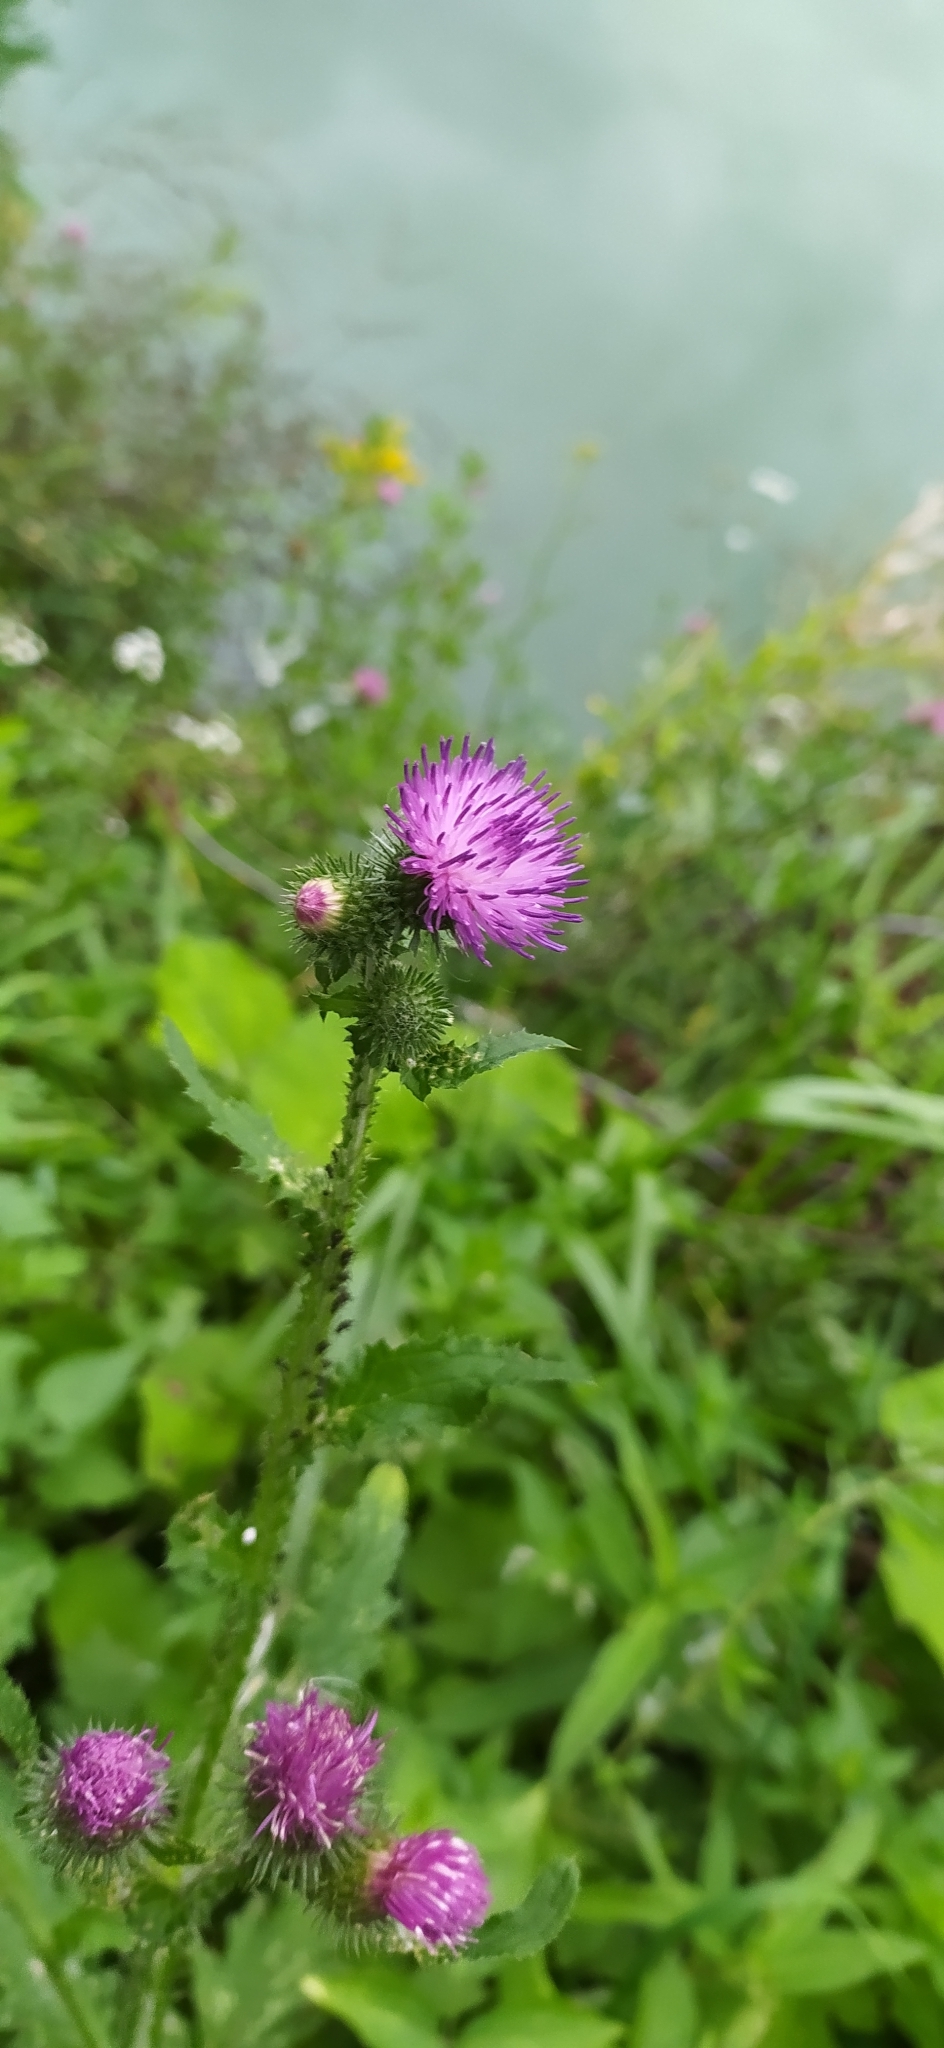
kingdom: Plantae
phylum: Tracheophyta
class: Magnoliopsida
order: Asterales
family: Asteraceae
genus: Carduus
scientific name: Carduus crispus
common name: Welted thistle
